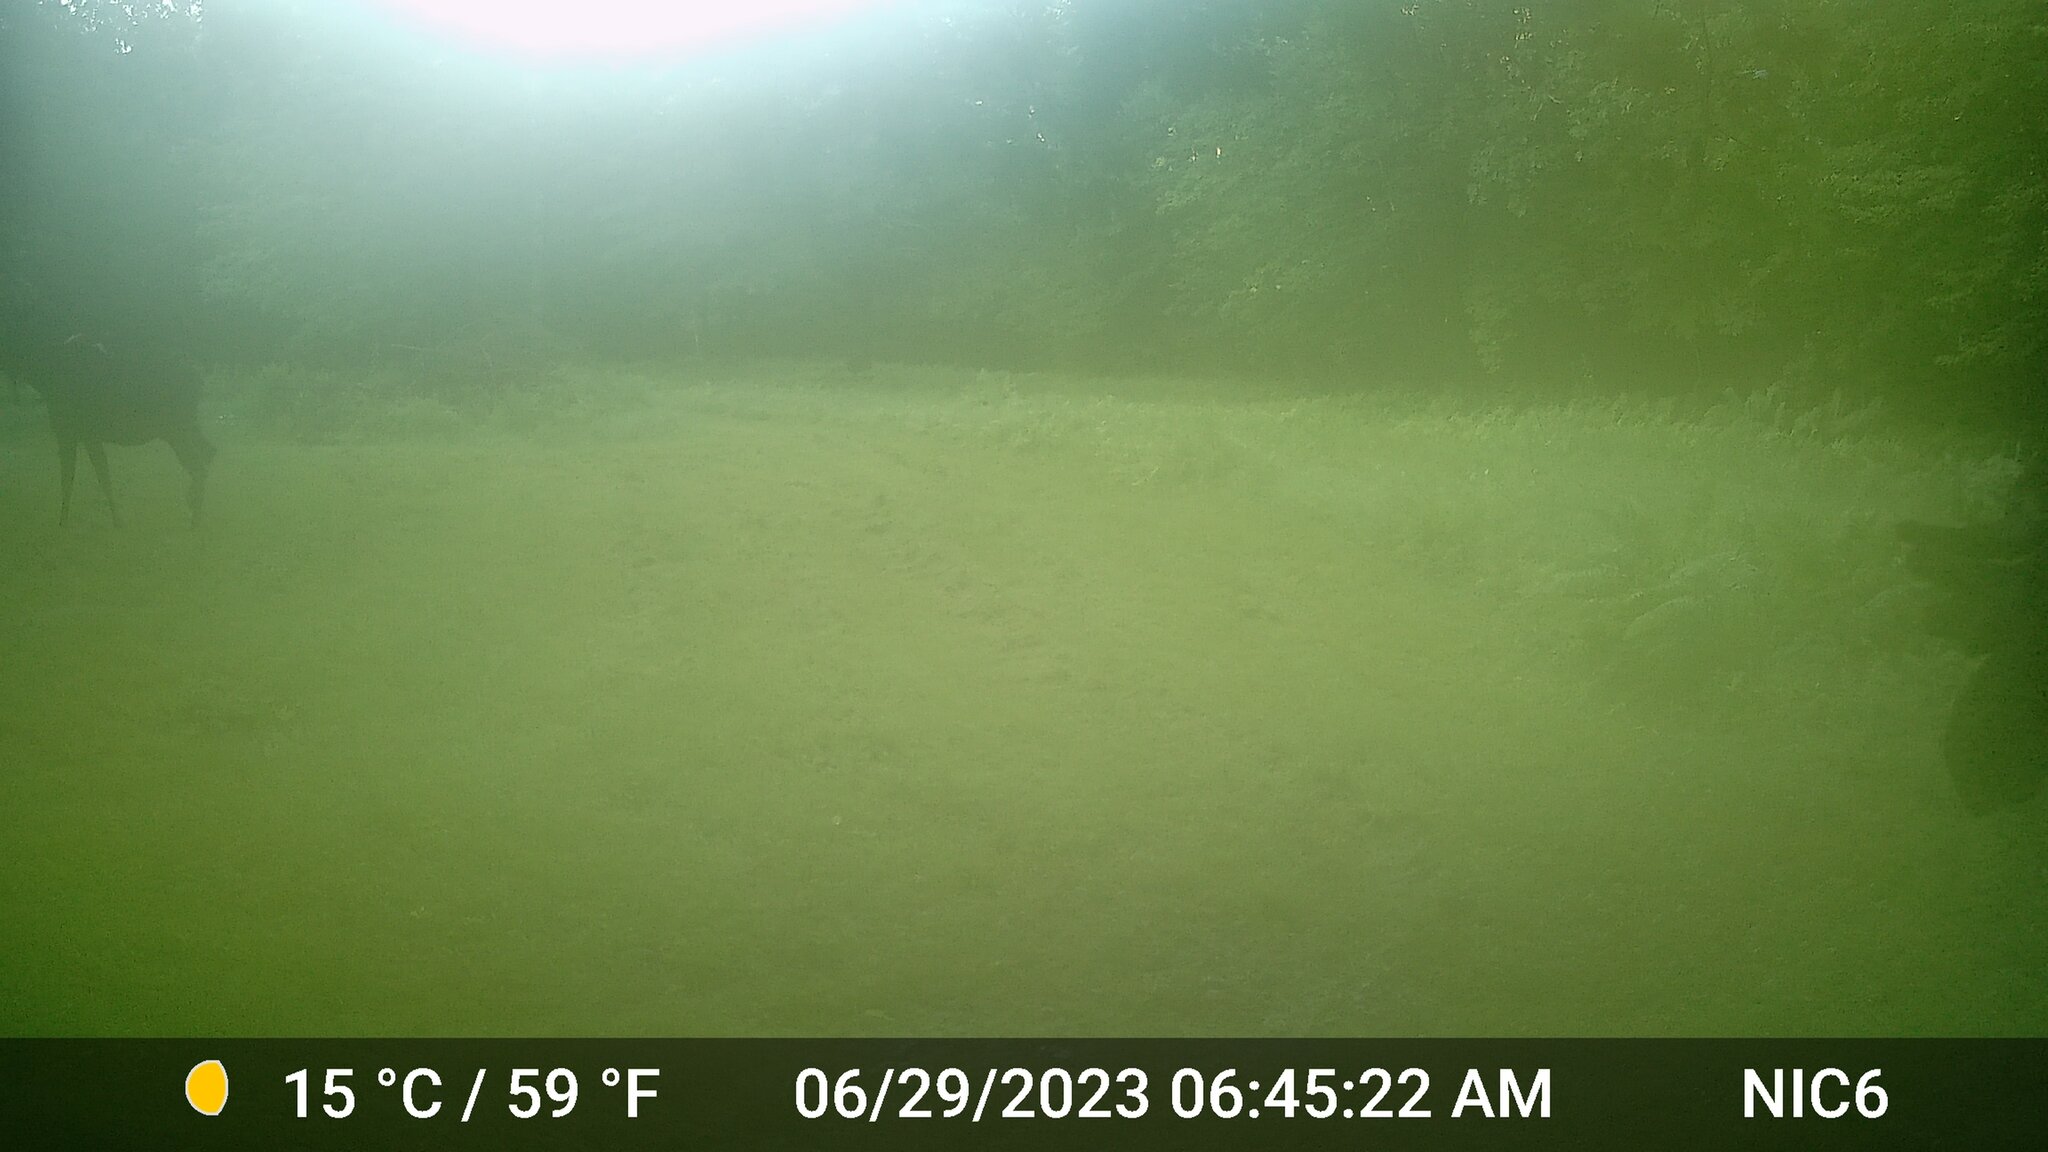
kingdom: Animalia
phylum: Chordata
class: Mammalia
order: Artiodactyla
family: Cervidae
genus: Alces
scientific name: Alces alces
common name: Moose
